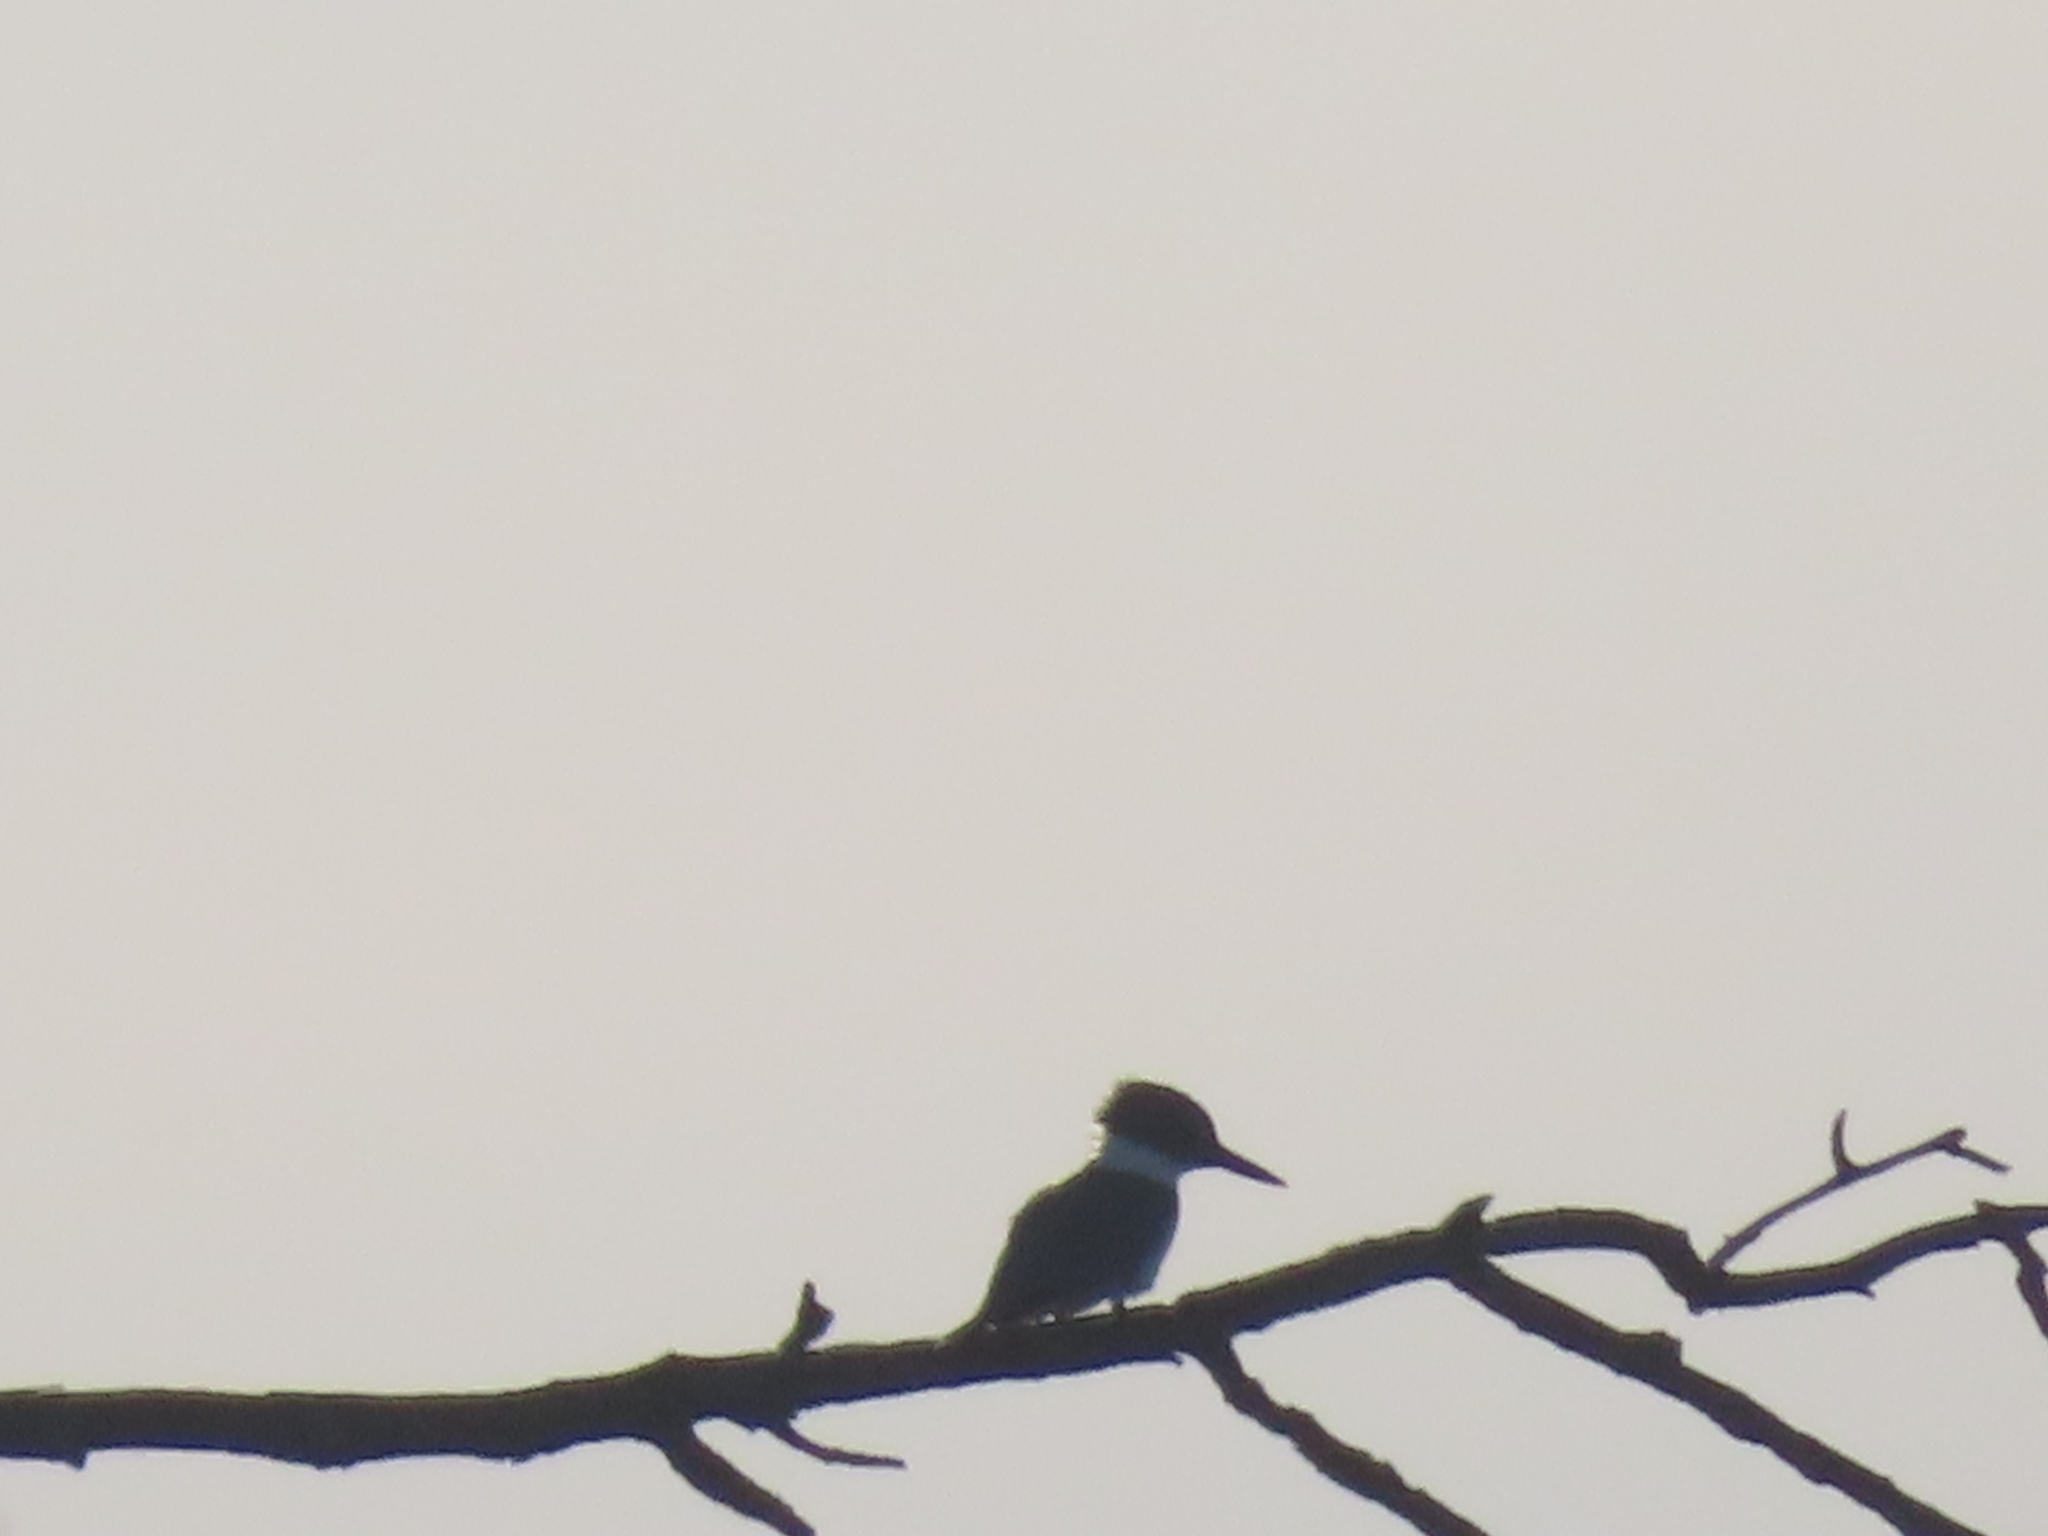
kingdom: Animalia
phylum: Chordata
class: Aves
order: Coraciiformes
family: Alcedinidae
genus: Megaceryle
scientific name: Megaceryle alcyon
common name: Belted kingfisher
